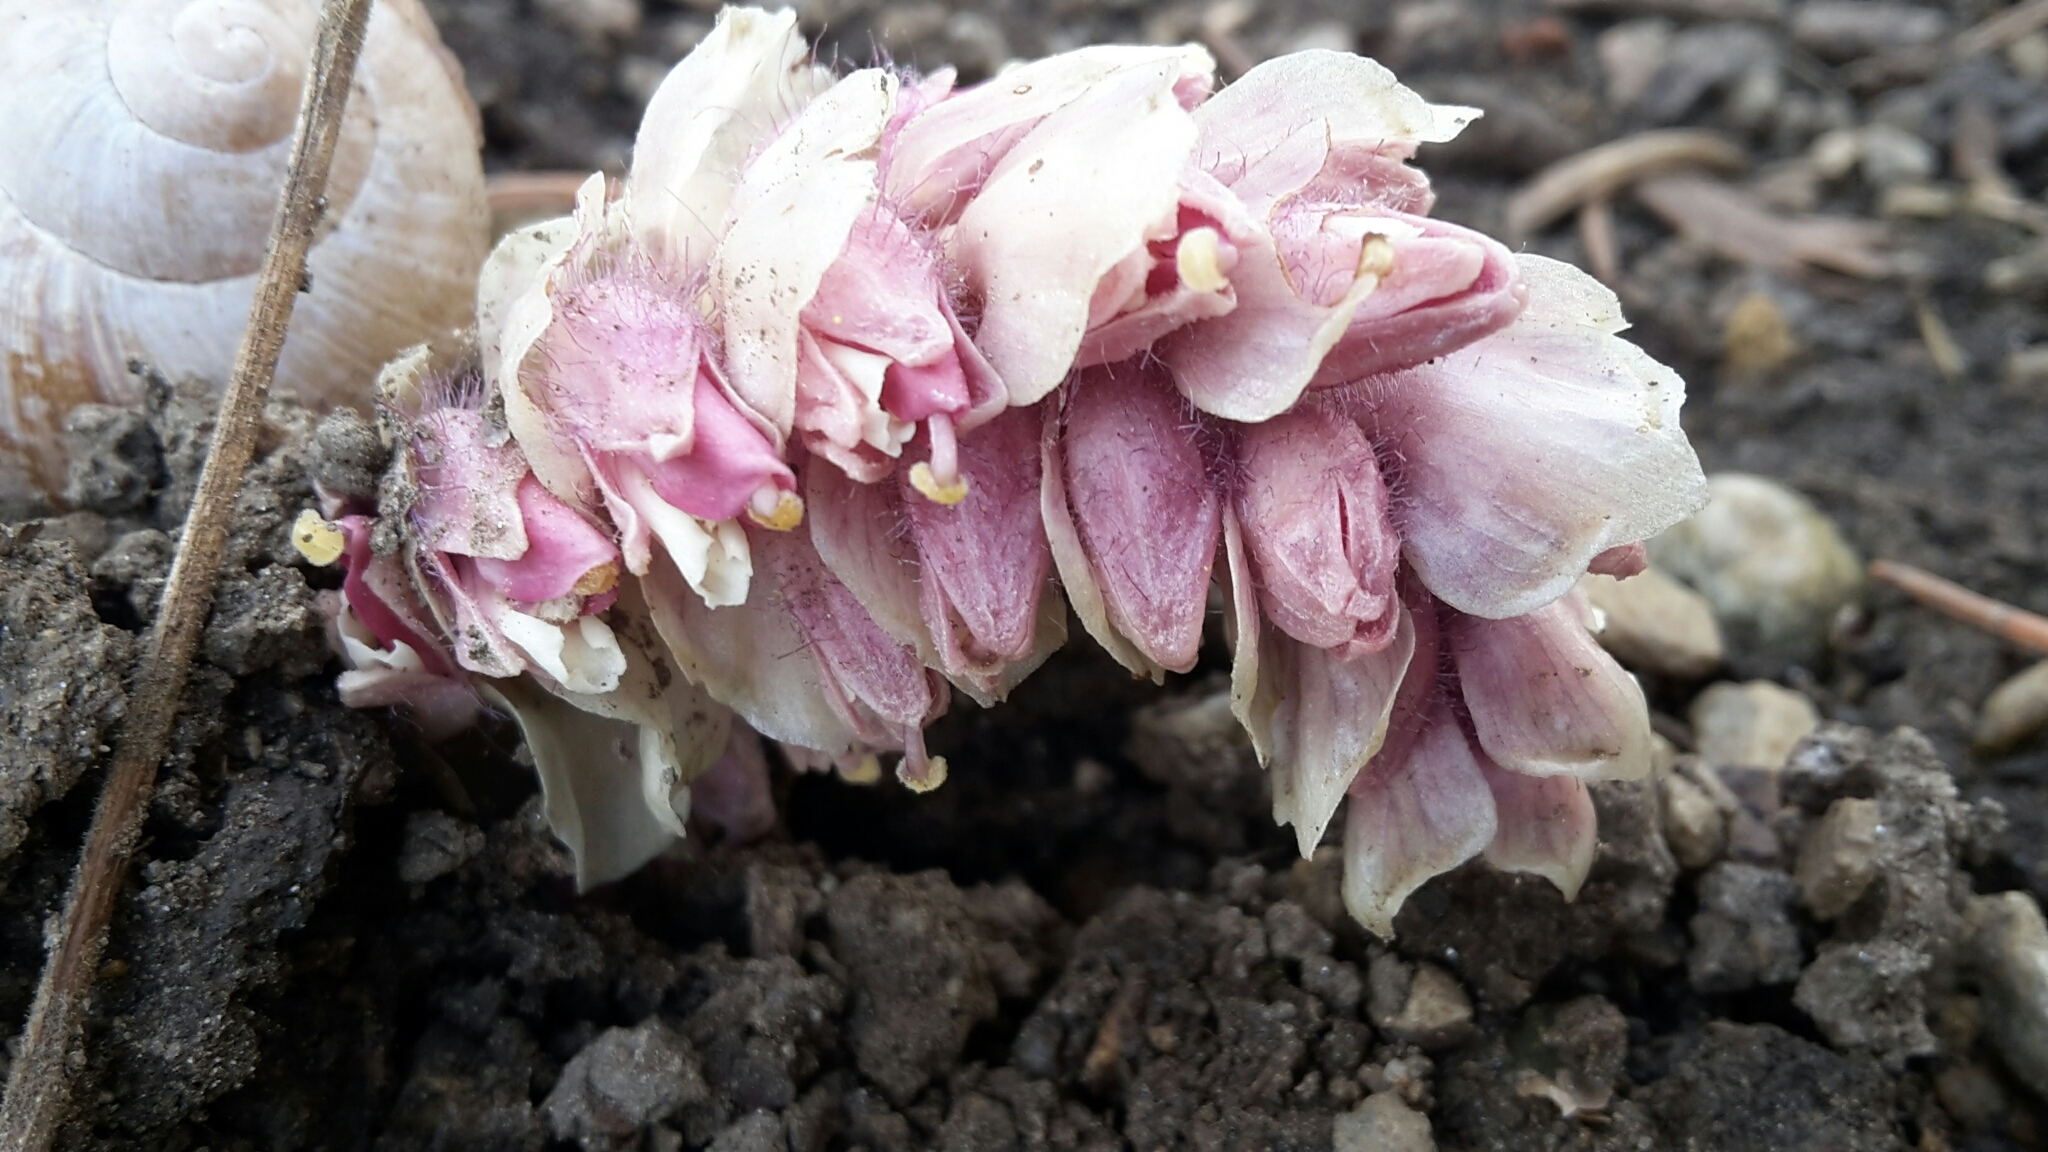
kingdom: Plantae
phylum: Tracheophyta
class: Magnoliopsida
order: Lamiales
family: Orobanchaceae
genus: Lathraea
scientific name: Lathraea squamaria
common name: Toothwort
